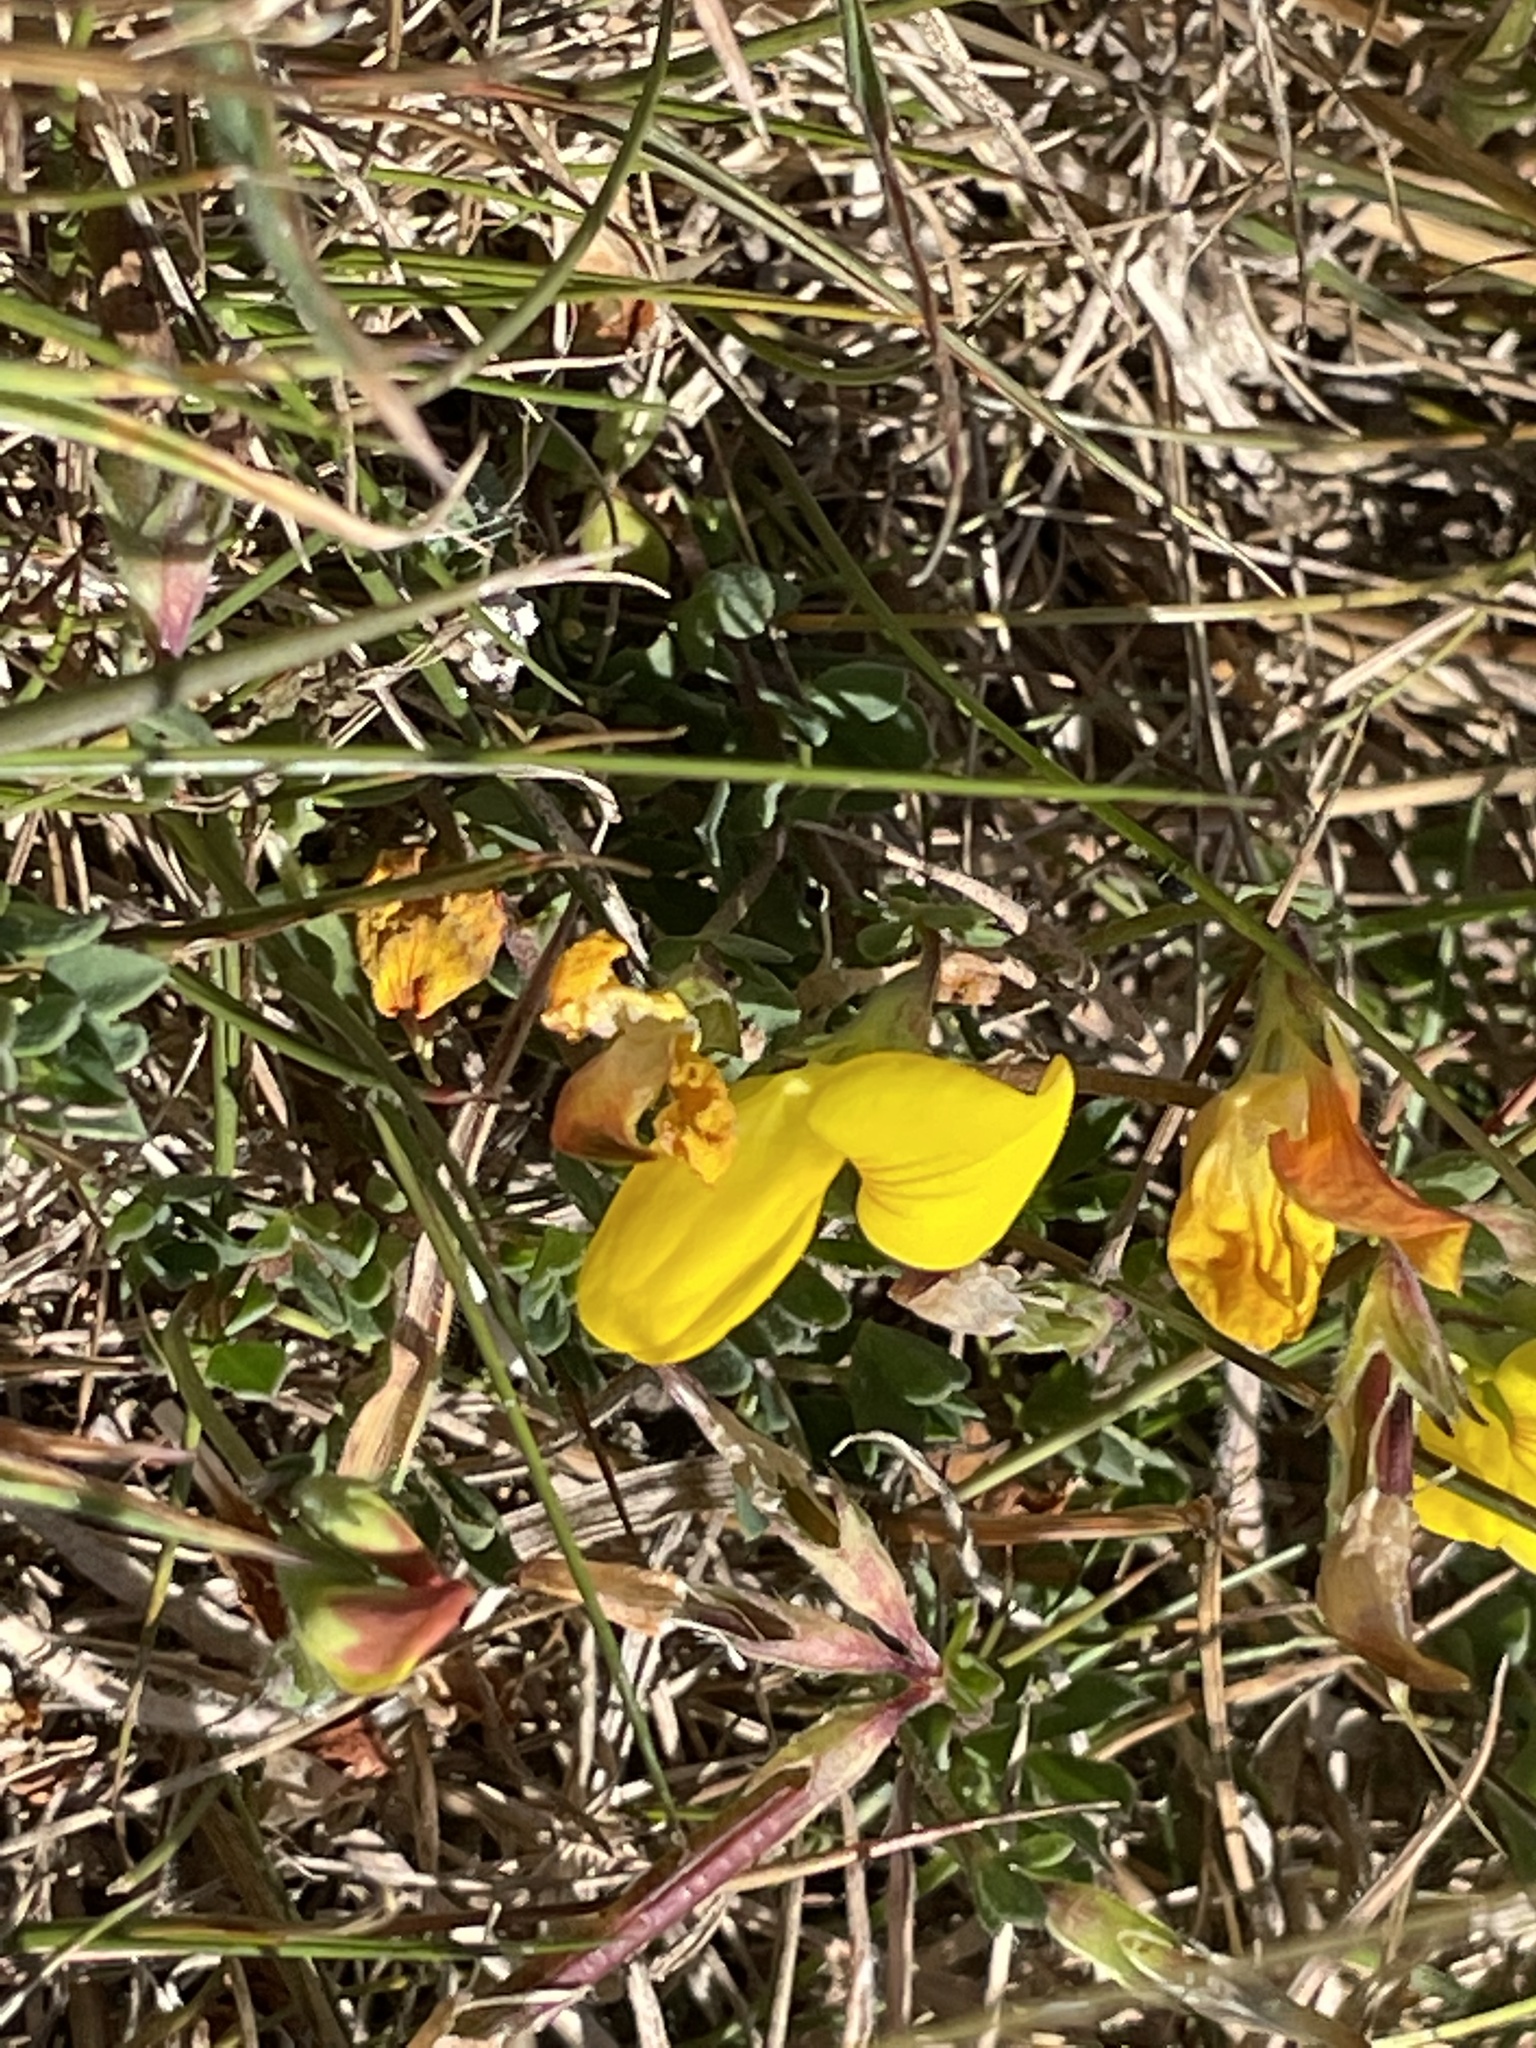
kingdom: Plantae
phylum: Tracheophyta
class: Magnoliopsida
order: Fabales
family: Fabaceae
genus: Lotus
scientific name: Lotus corniculatus
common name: Common bird's-foot-trefoil
